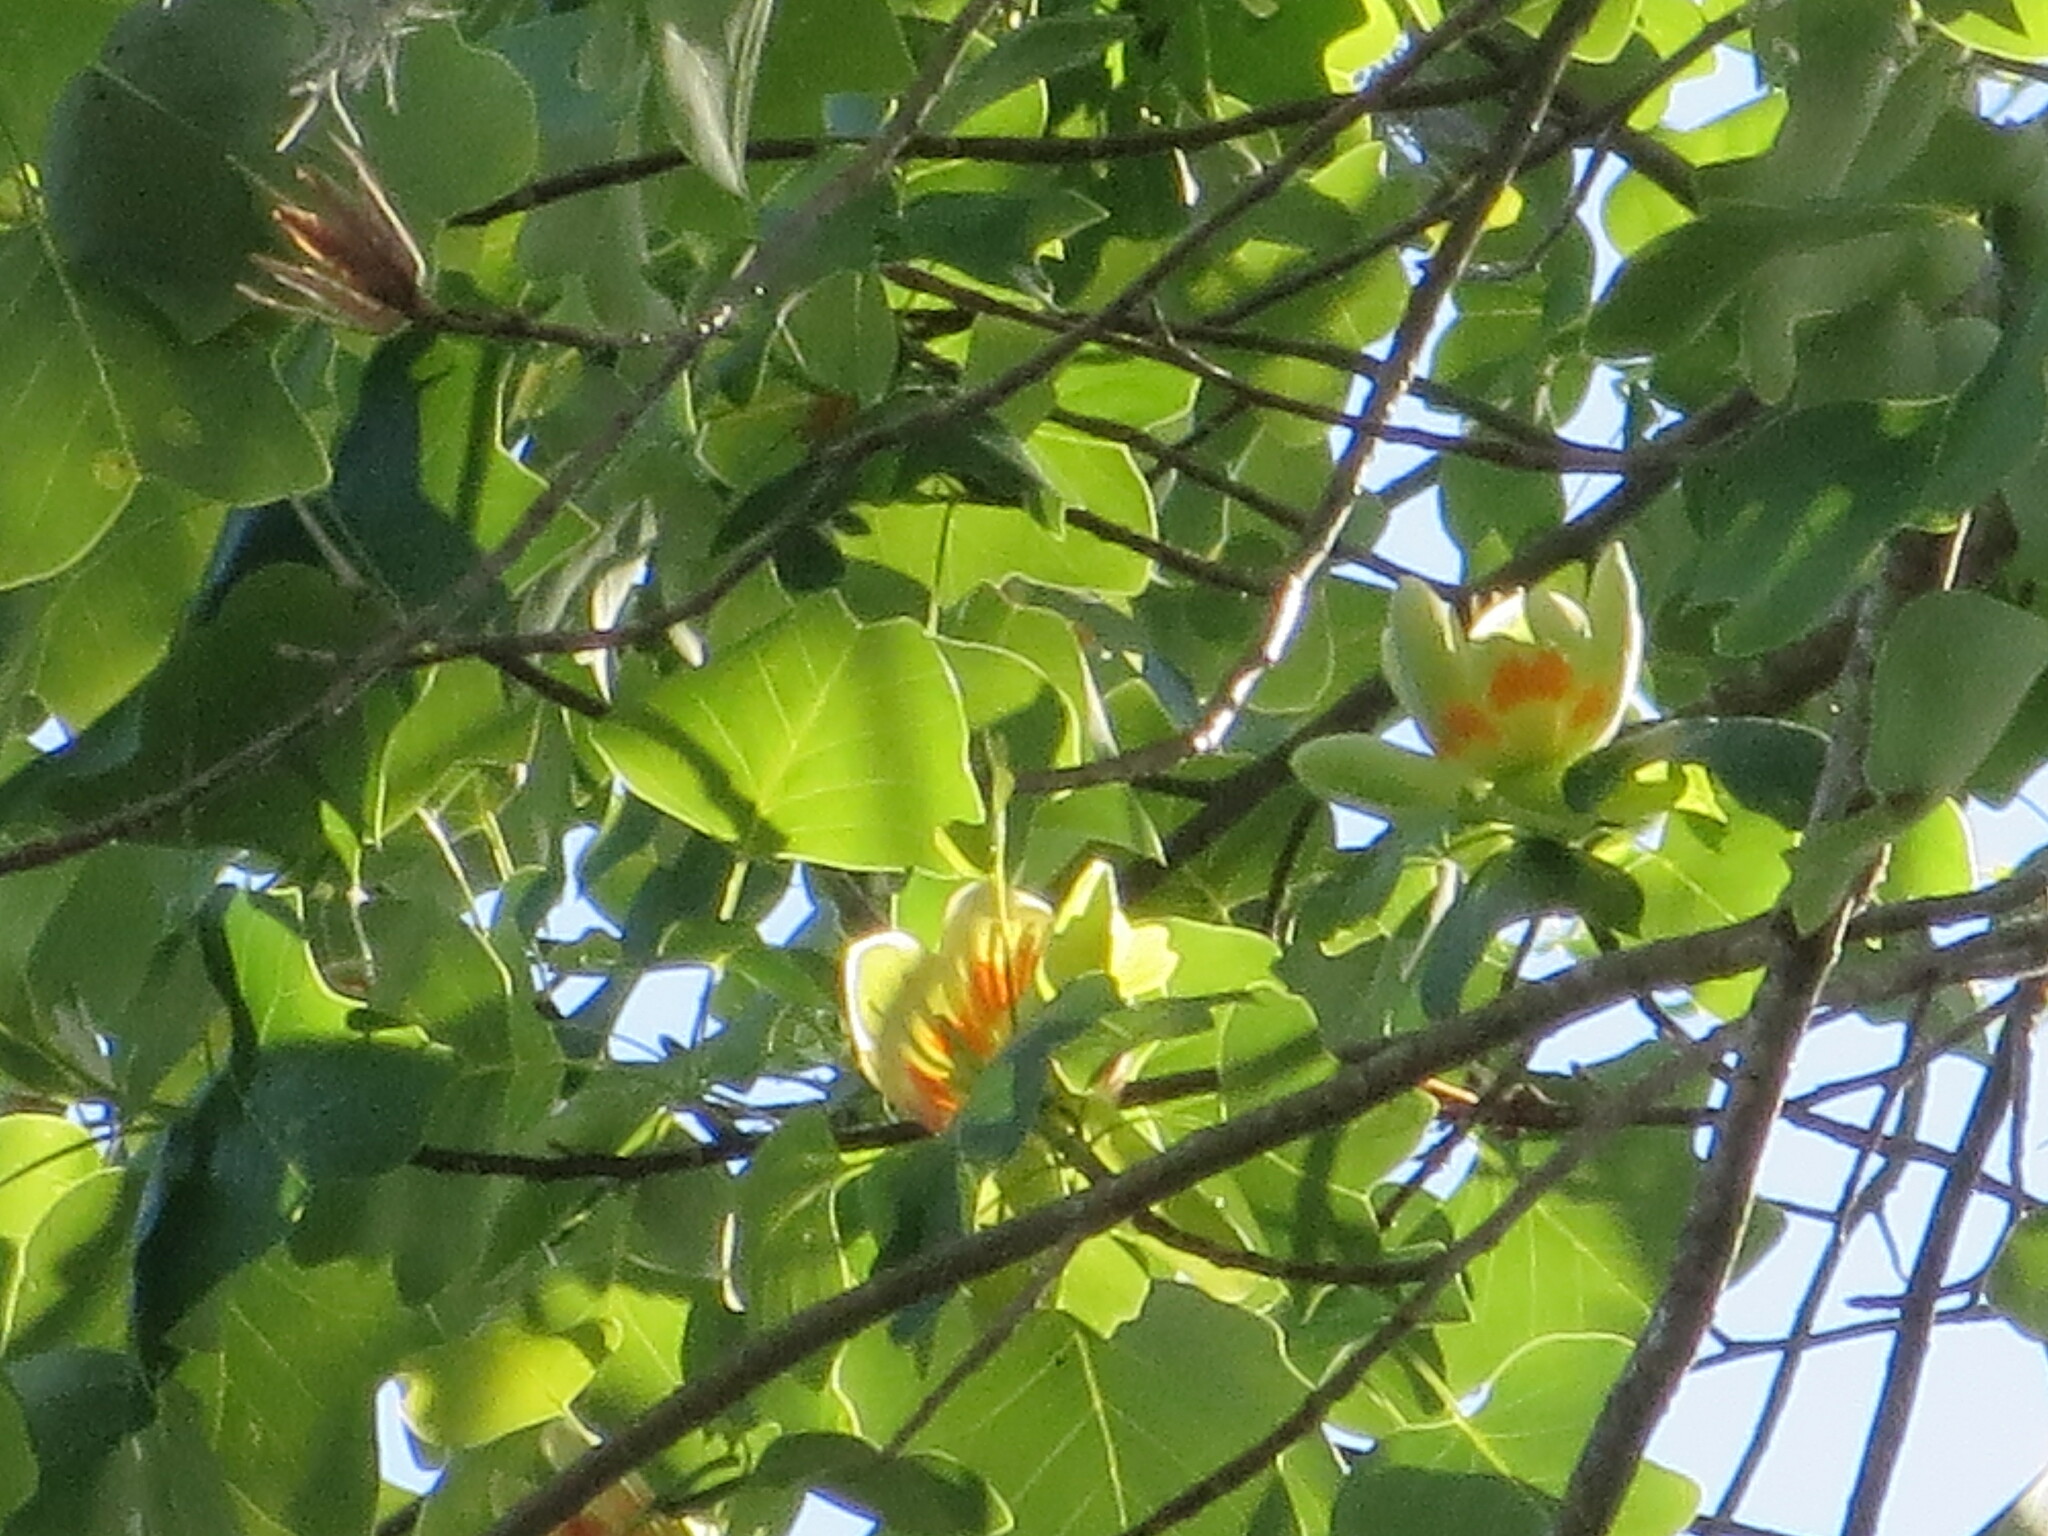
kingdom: Plantae
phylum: Tracheophyta
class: Magnoliopsida
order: Magnoliales
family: Magnoliaceae
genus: Liriodendron
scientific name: Liriodendron tulipifera
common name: Tulip tree
